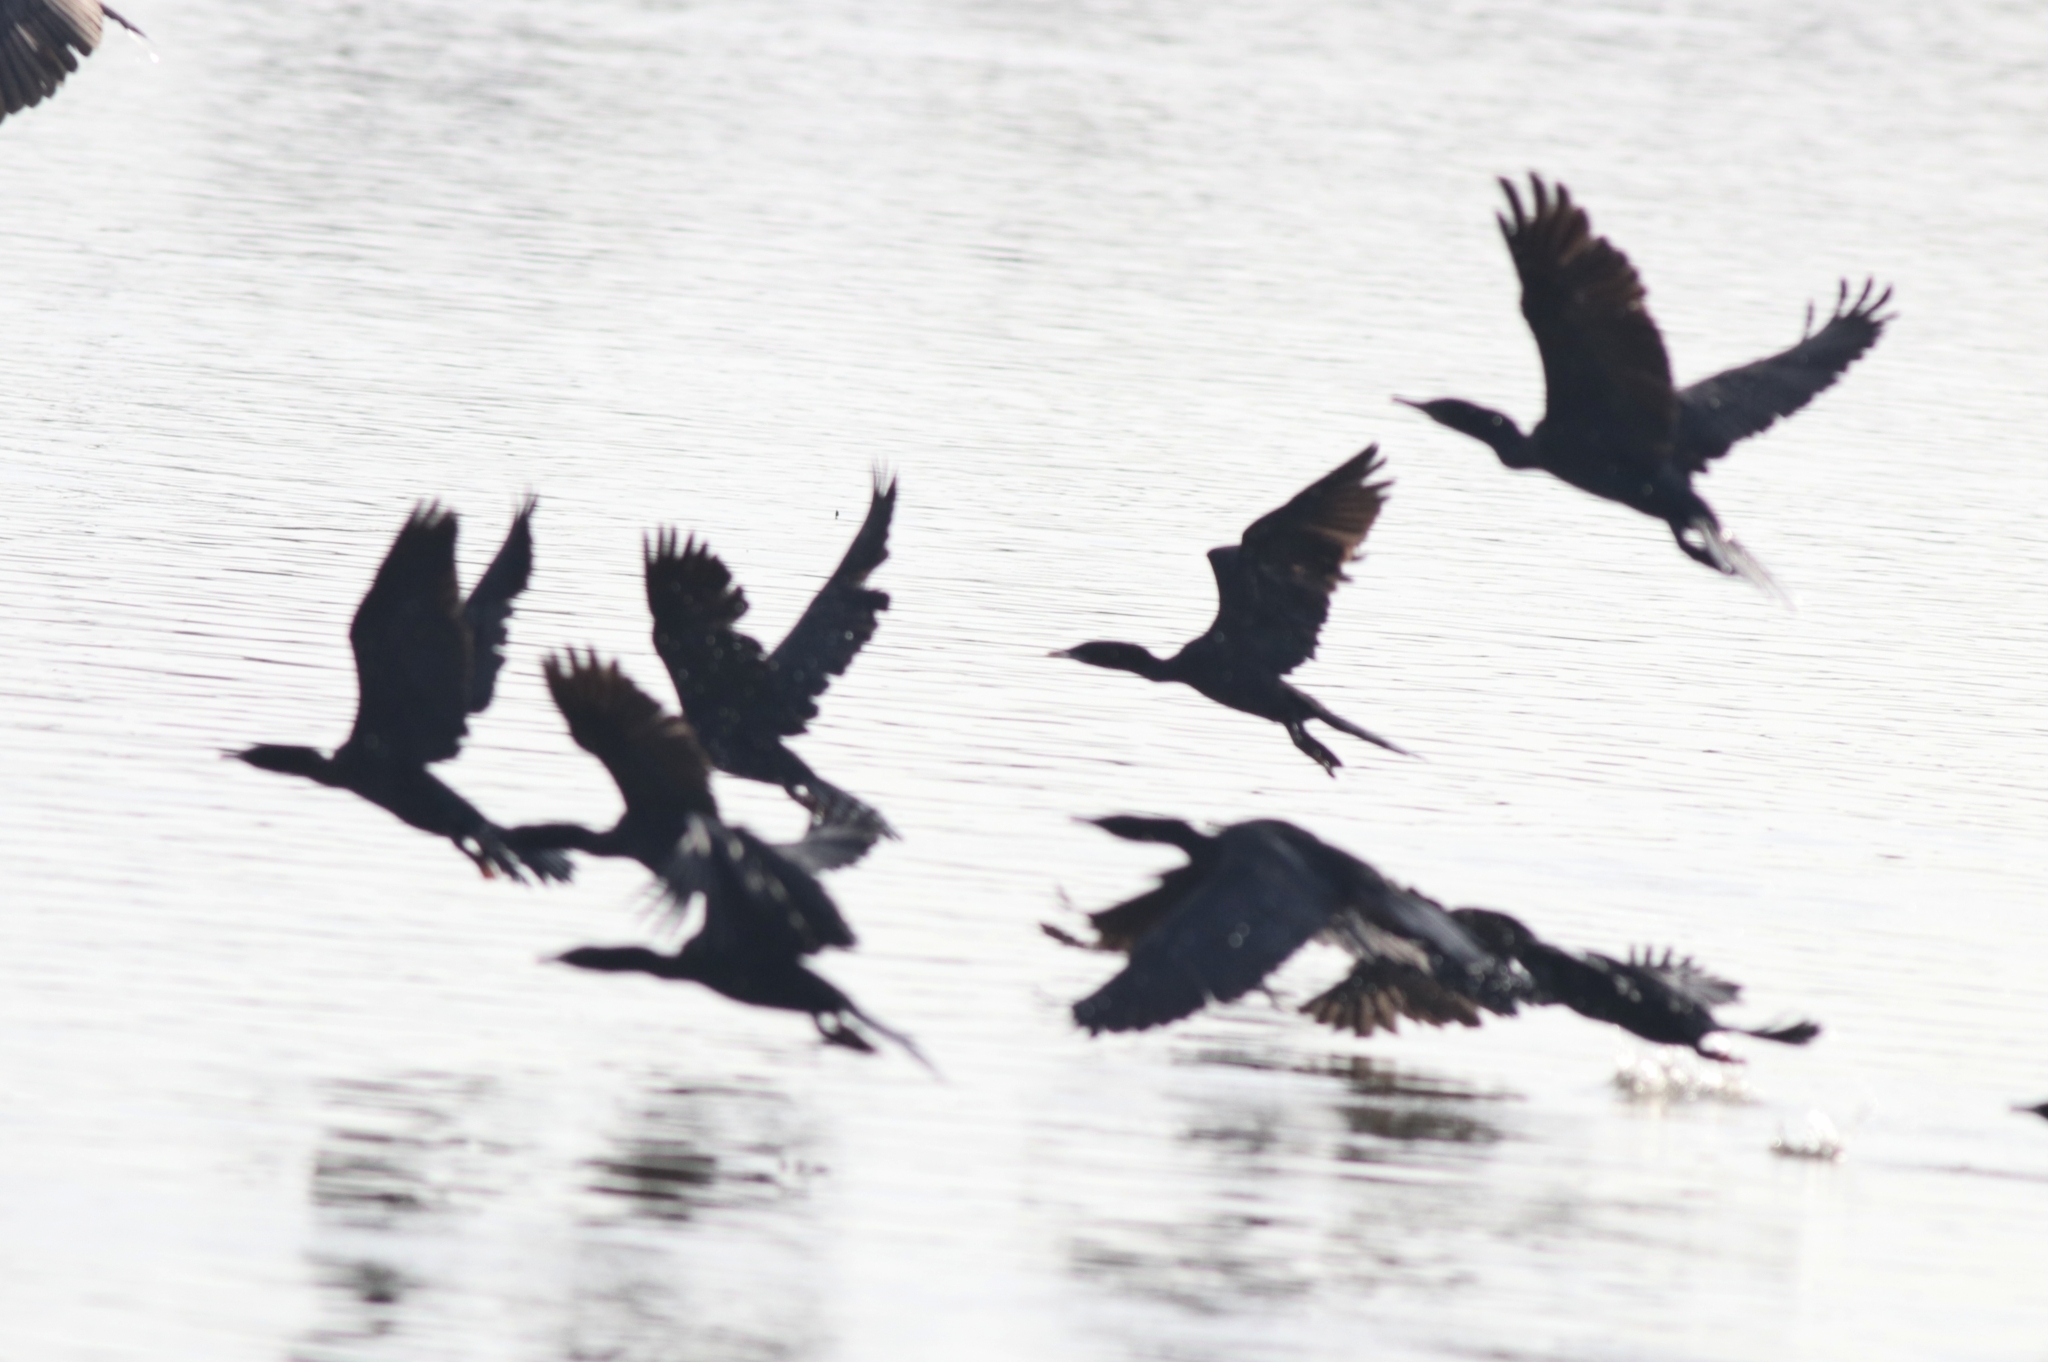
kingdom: Animalia
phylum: Chordata
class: Aves
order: Suliformes
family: Phalacrocoracidae
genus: Phalacrocorax
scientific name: Phalacrocorax fuscicollis
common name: Indian cormorant
